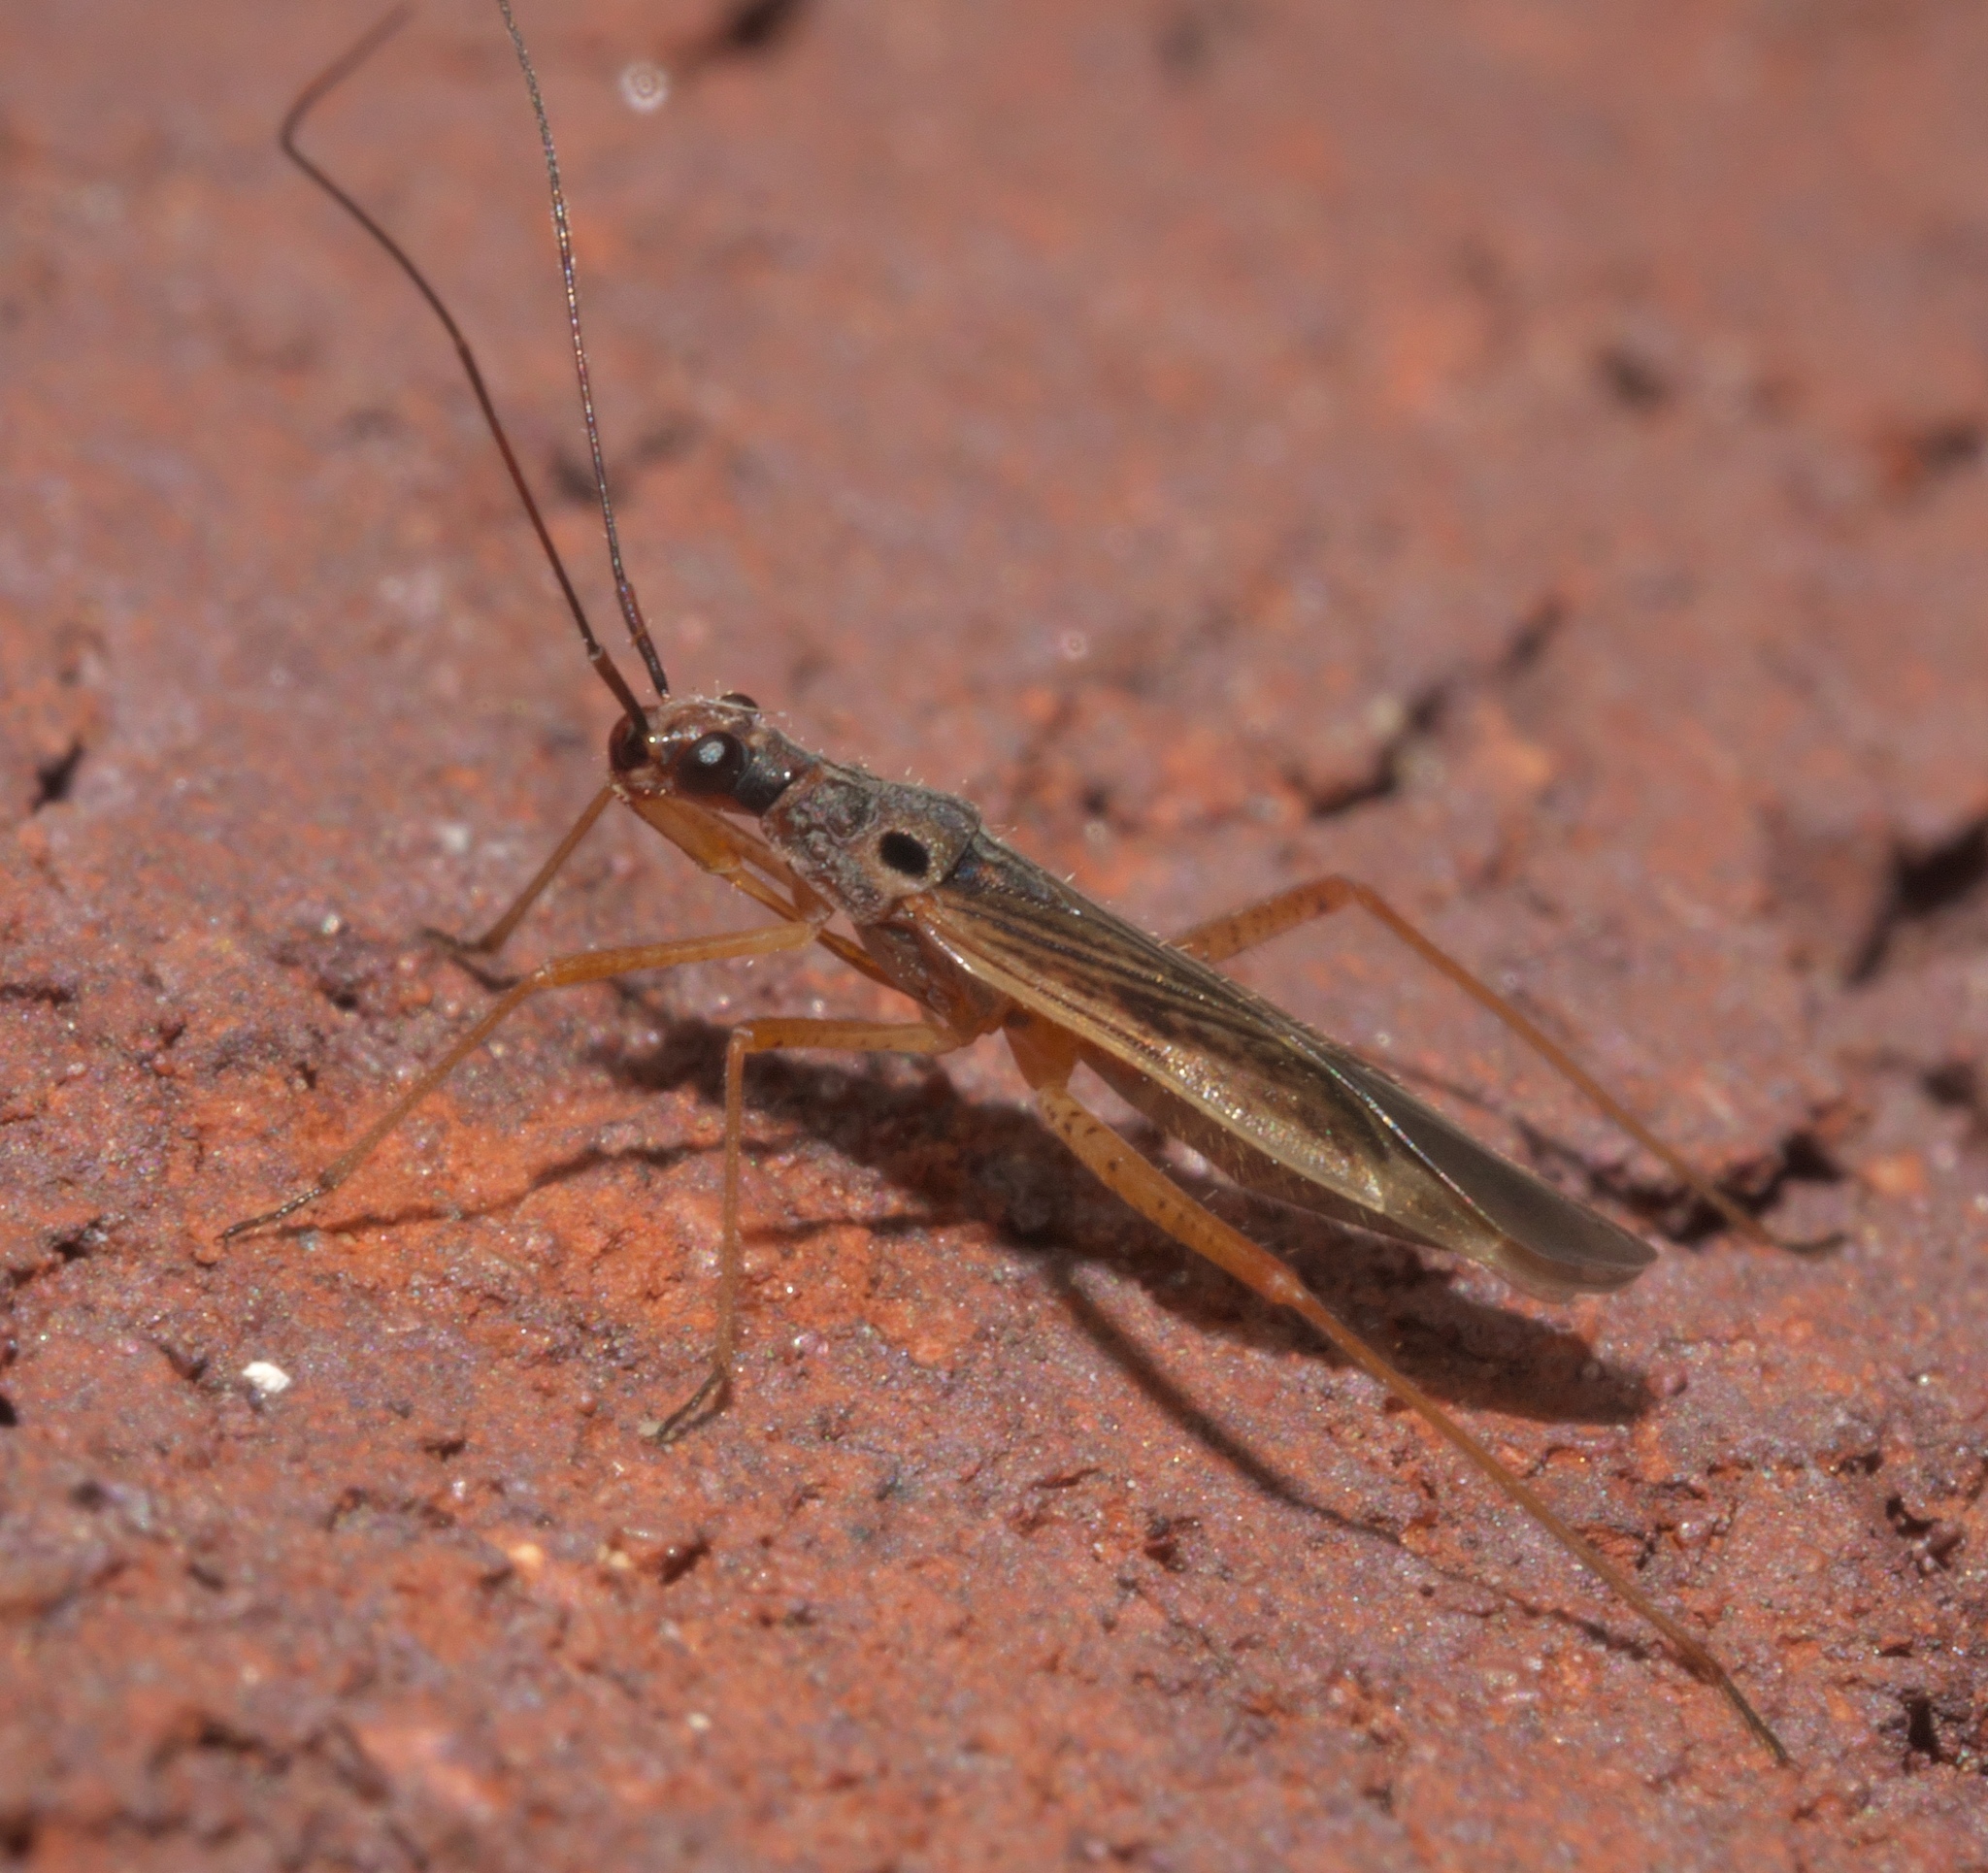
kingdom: Animalia
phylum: Arthropoda
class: Insecta
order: Hemiptera
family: Miridae
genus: Collaria
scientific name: Collaria oculata
